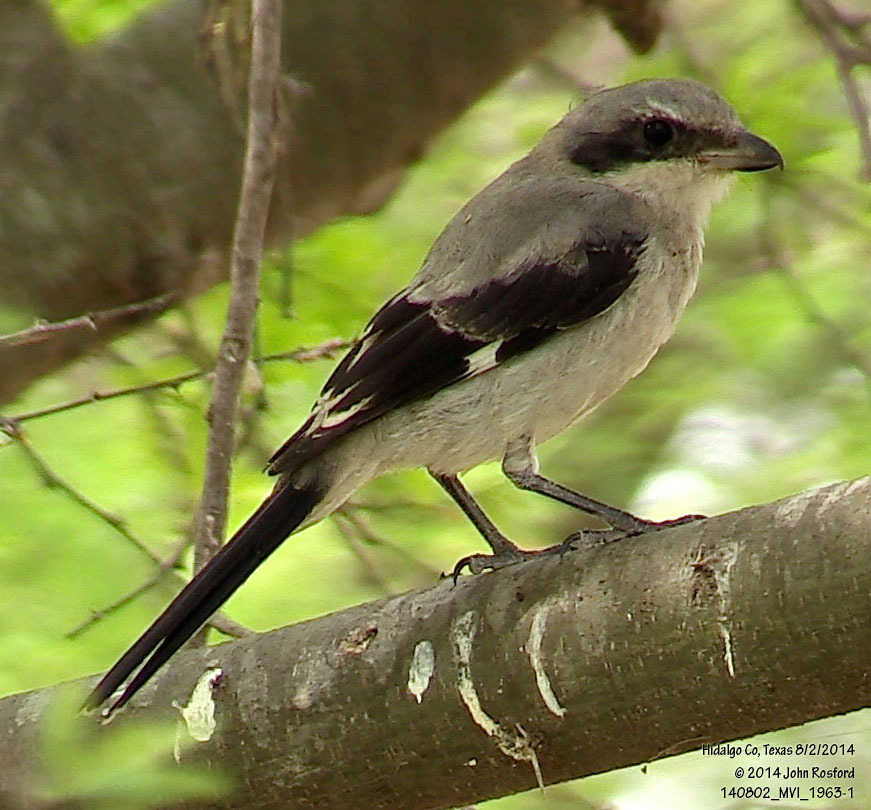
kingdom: Animalia
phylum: Chordata
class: Aves
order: Passeriformes
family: Laniidae
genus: Lanius
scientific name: Lanius ludovicianus
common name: Loggerhead shrike
